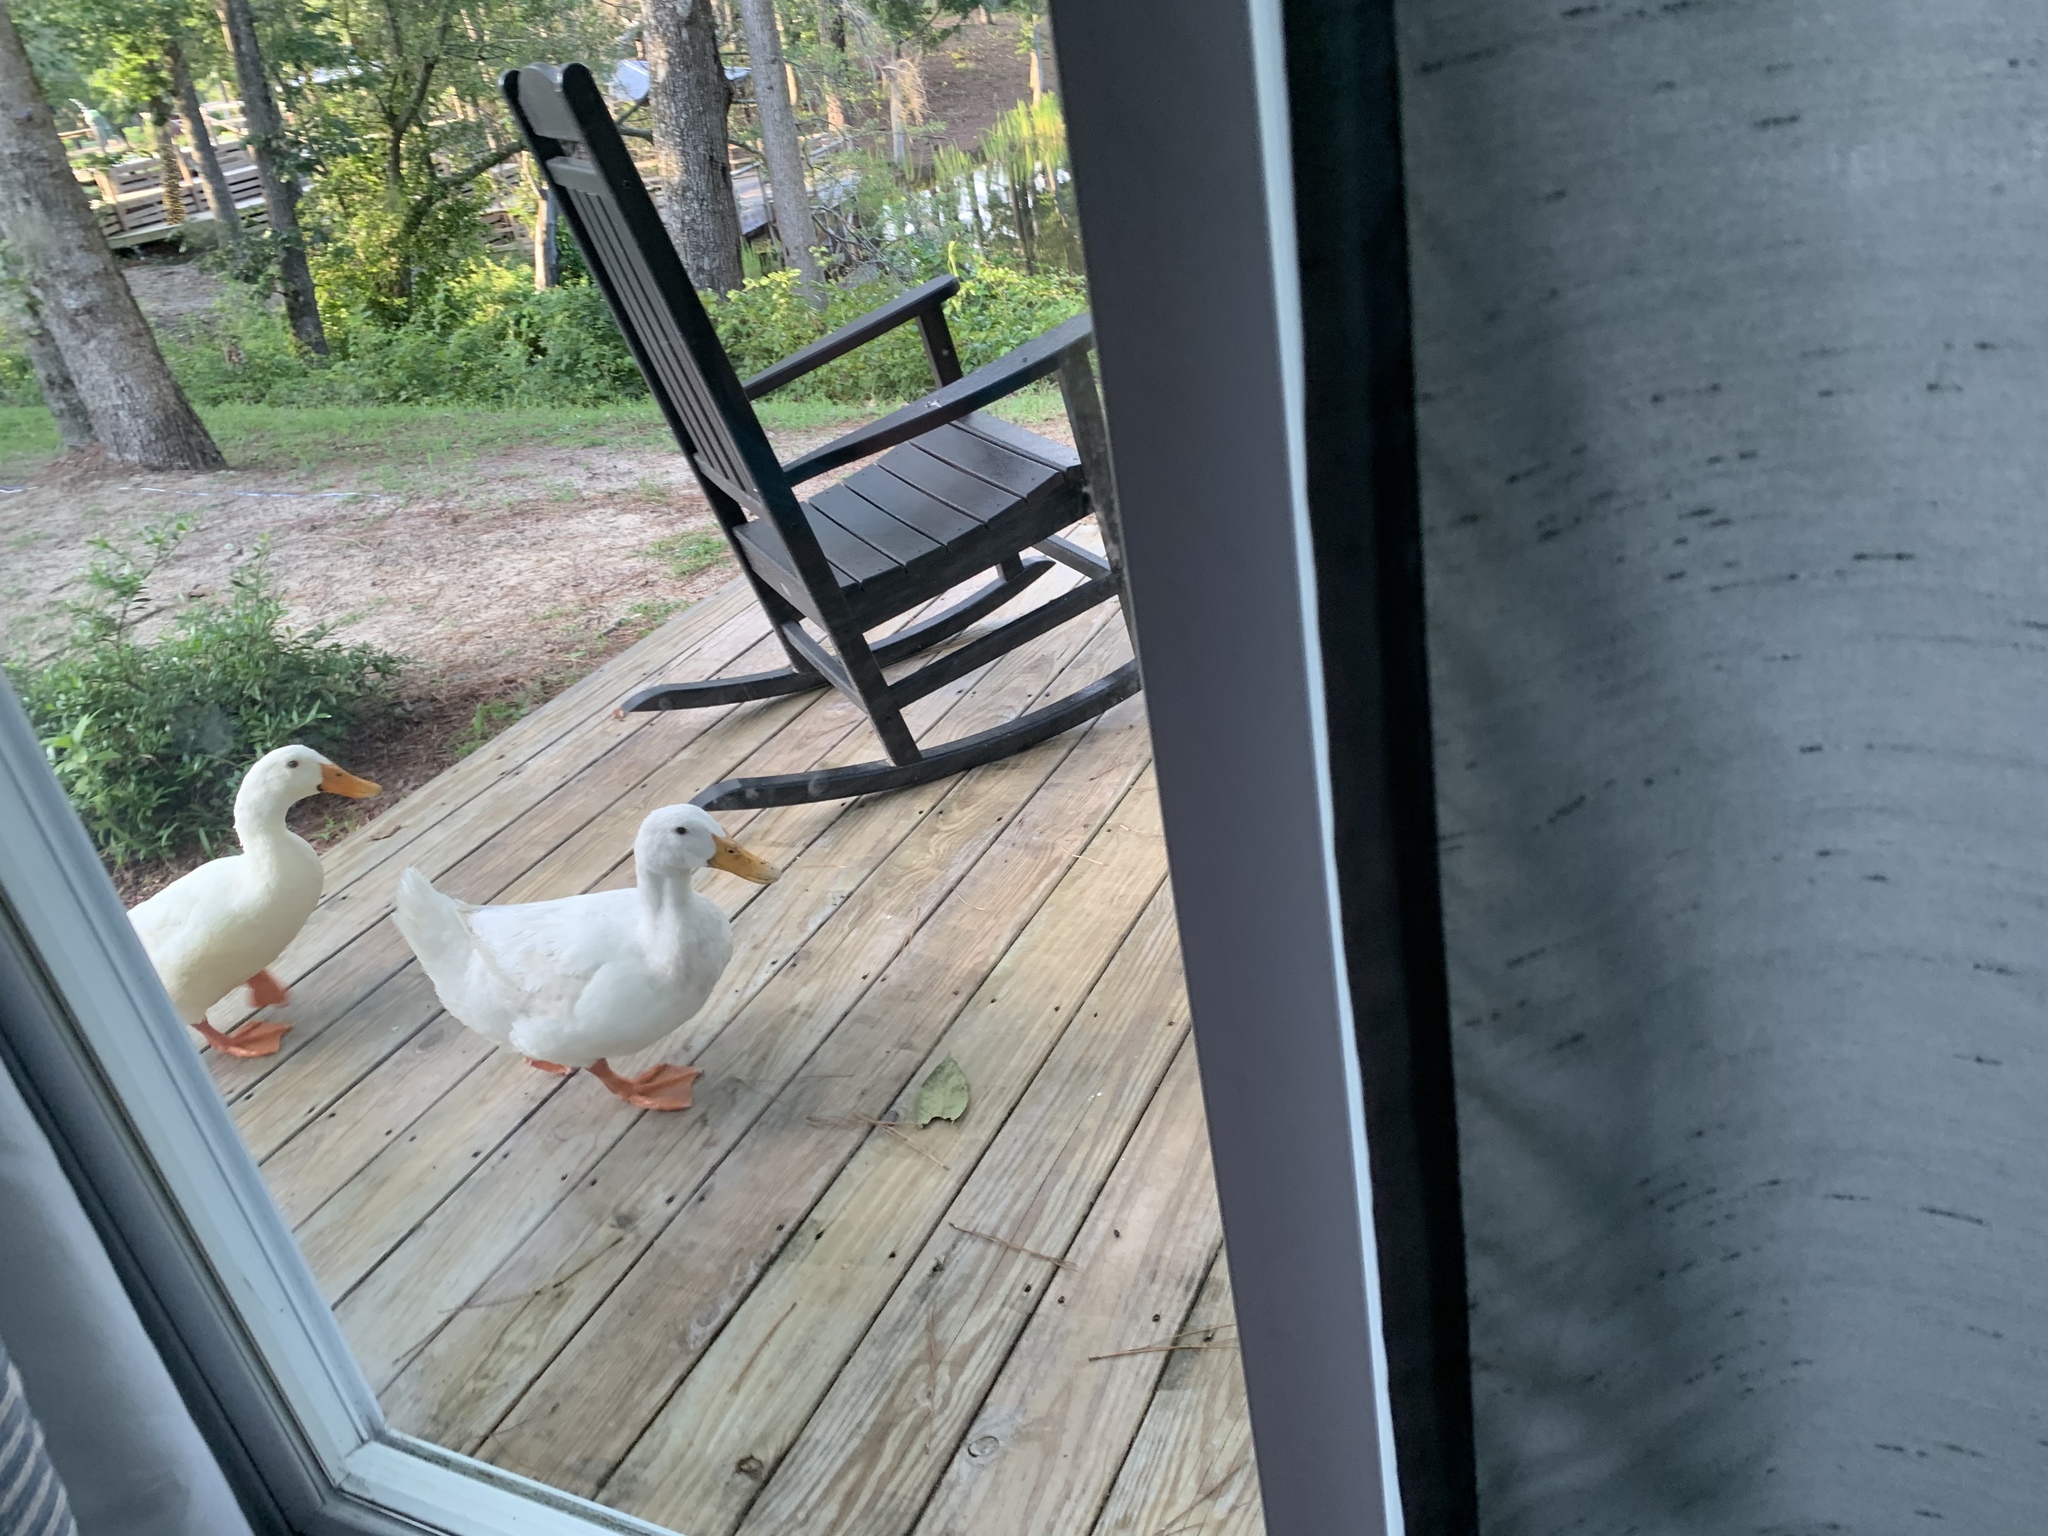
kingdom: Animalia
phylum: Chordata
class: Aves
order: Anseriformes
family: Anatidae
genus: Anas
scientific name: Anas platyrhynchos
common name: Mallard
